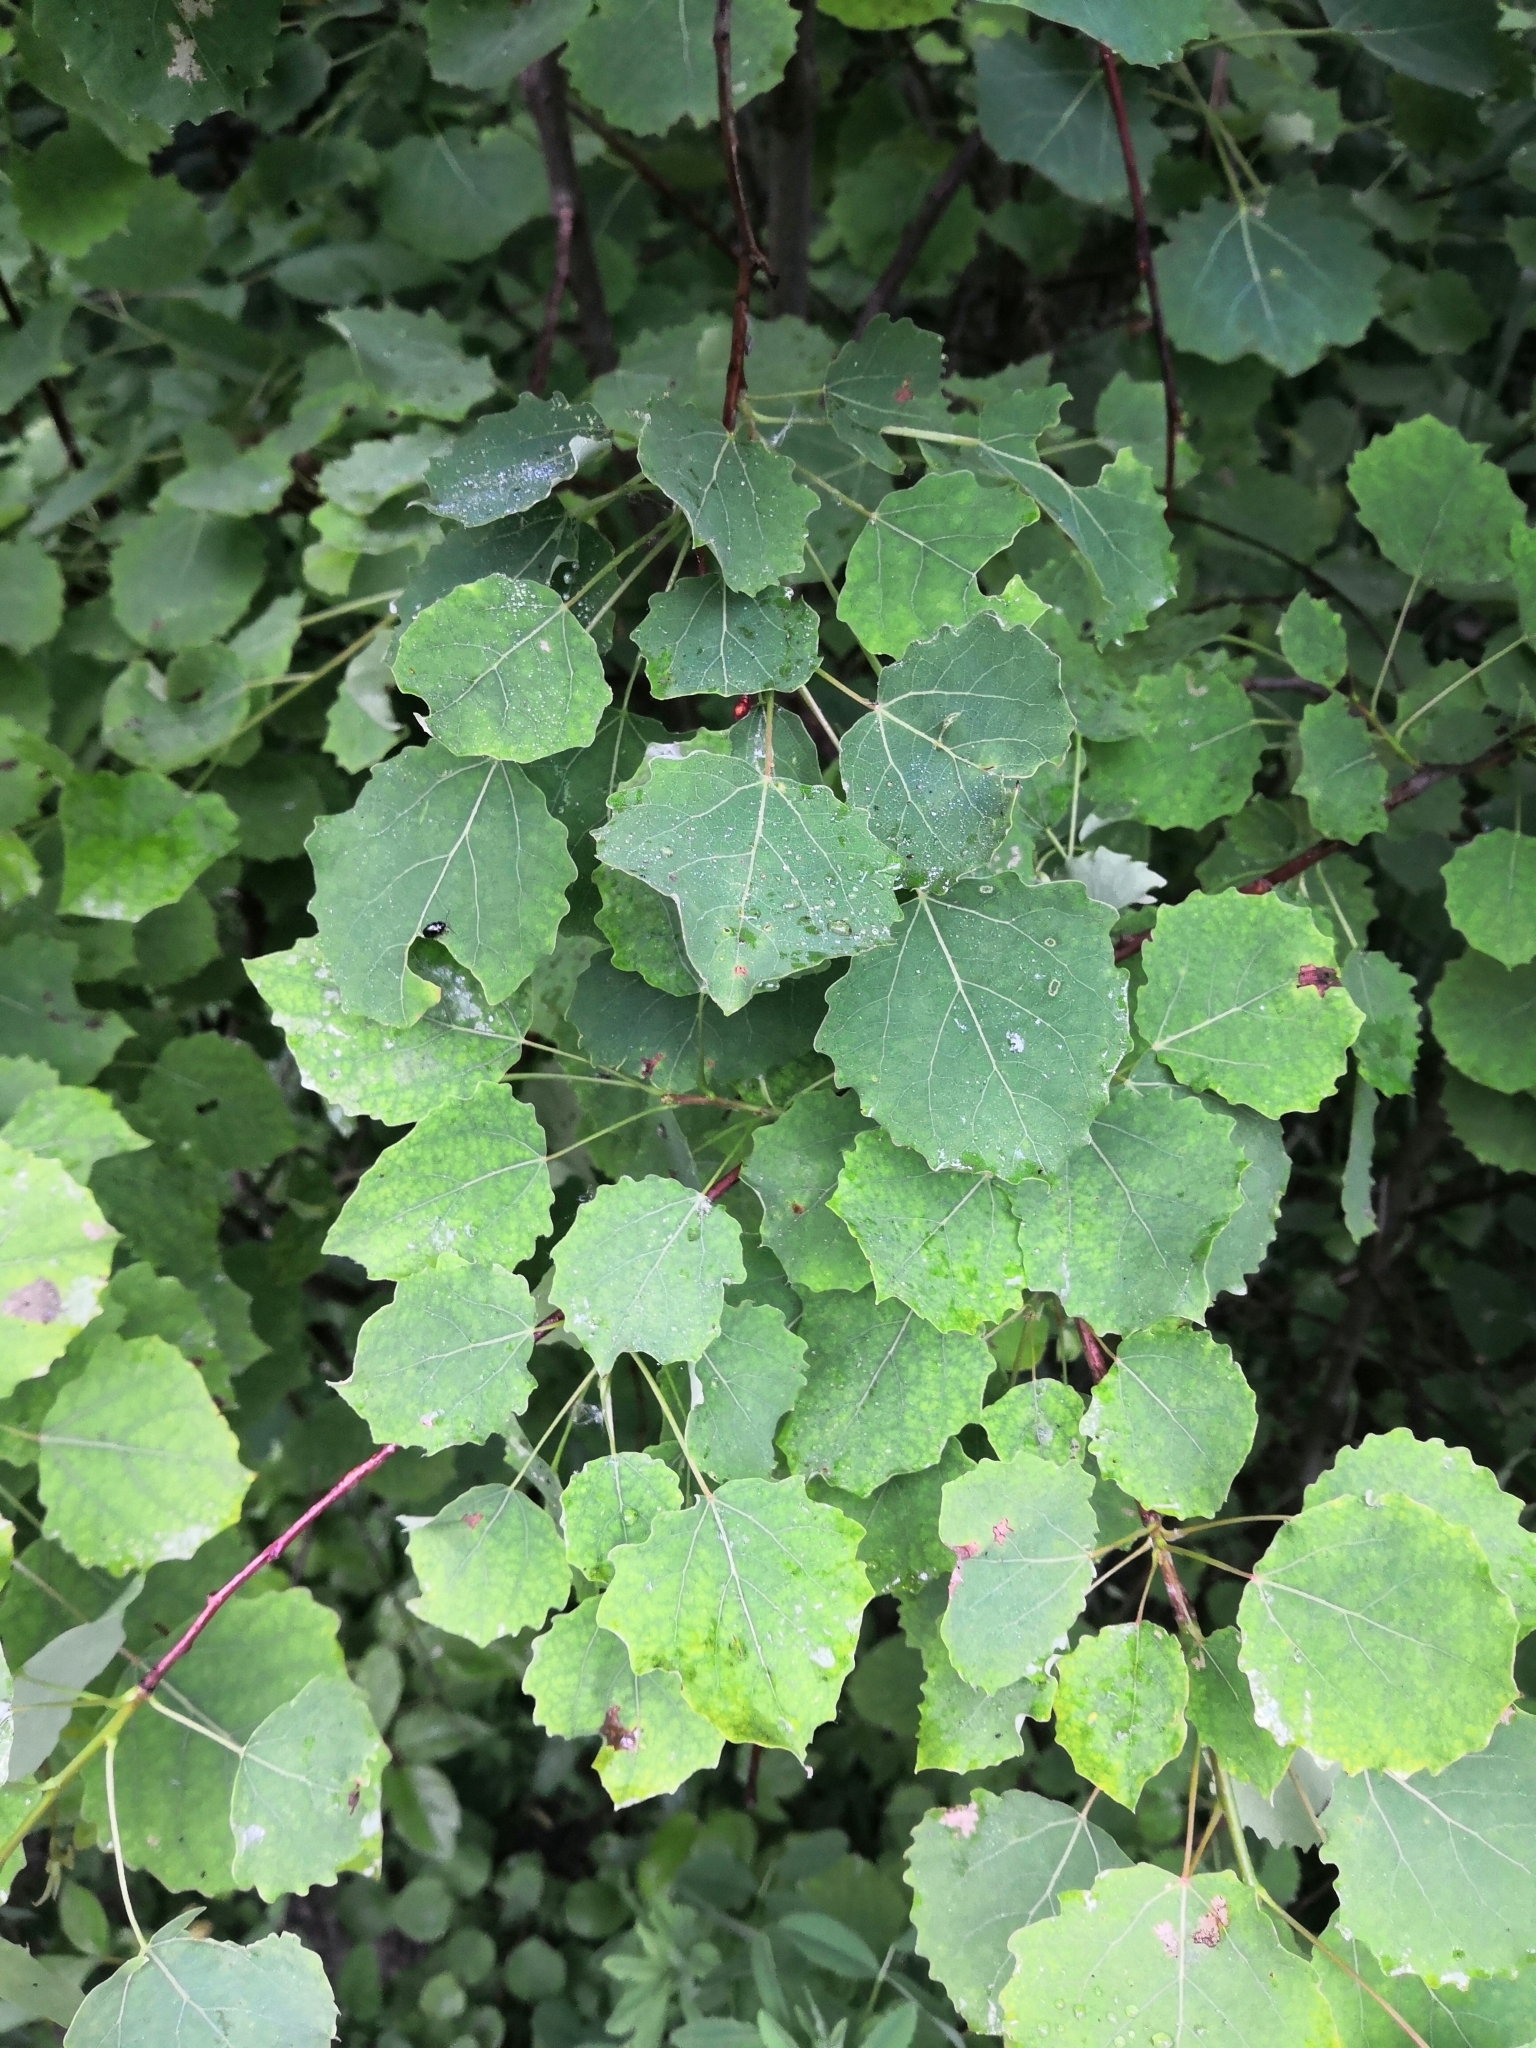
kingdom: Plantae
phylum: Tracheophyta
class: Magnoliopsida
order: Malpighiales
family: Salicaceae
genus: Populus
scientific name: Populus tremula
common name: European aspen
